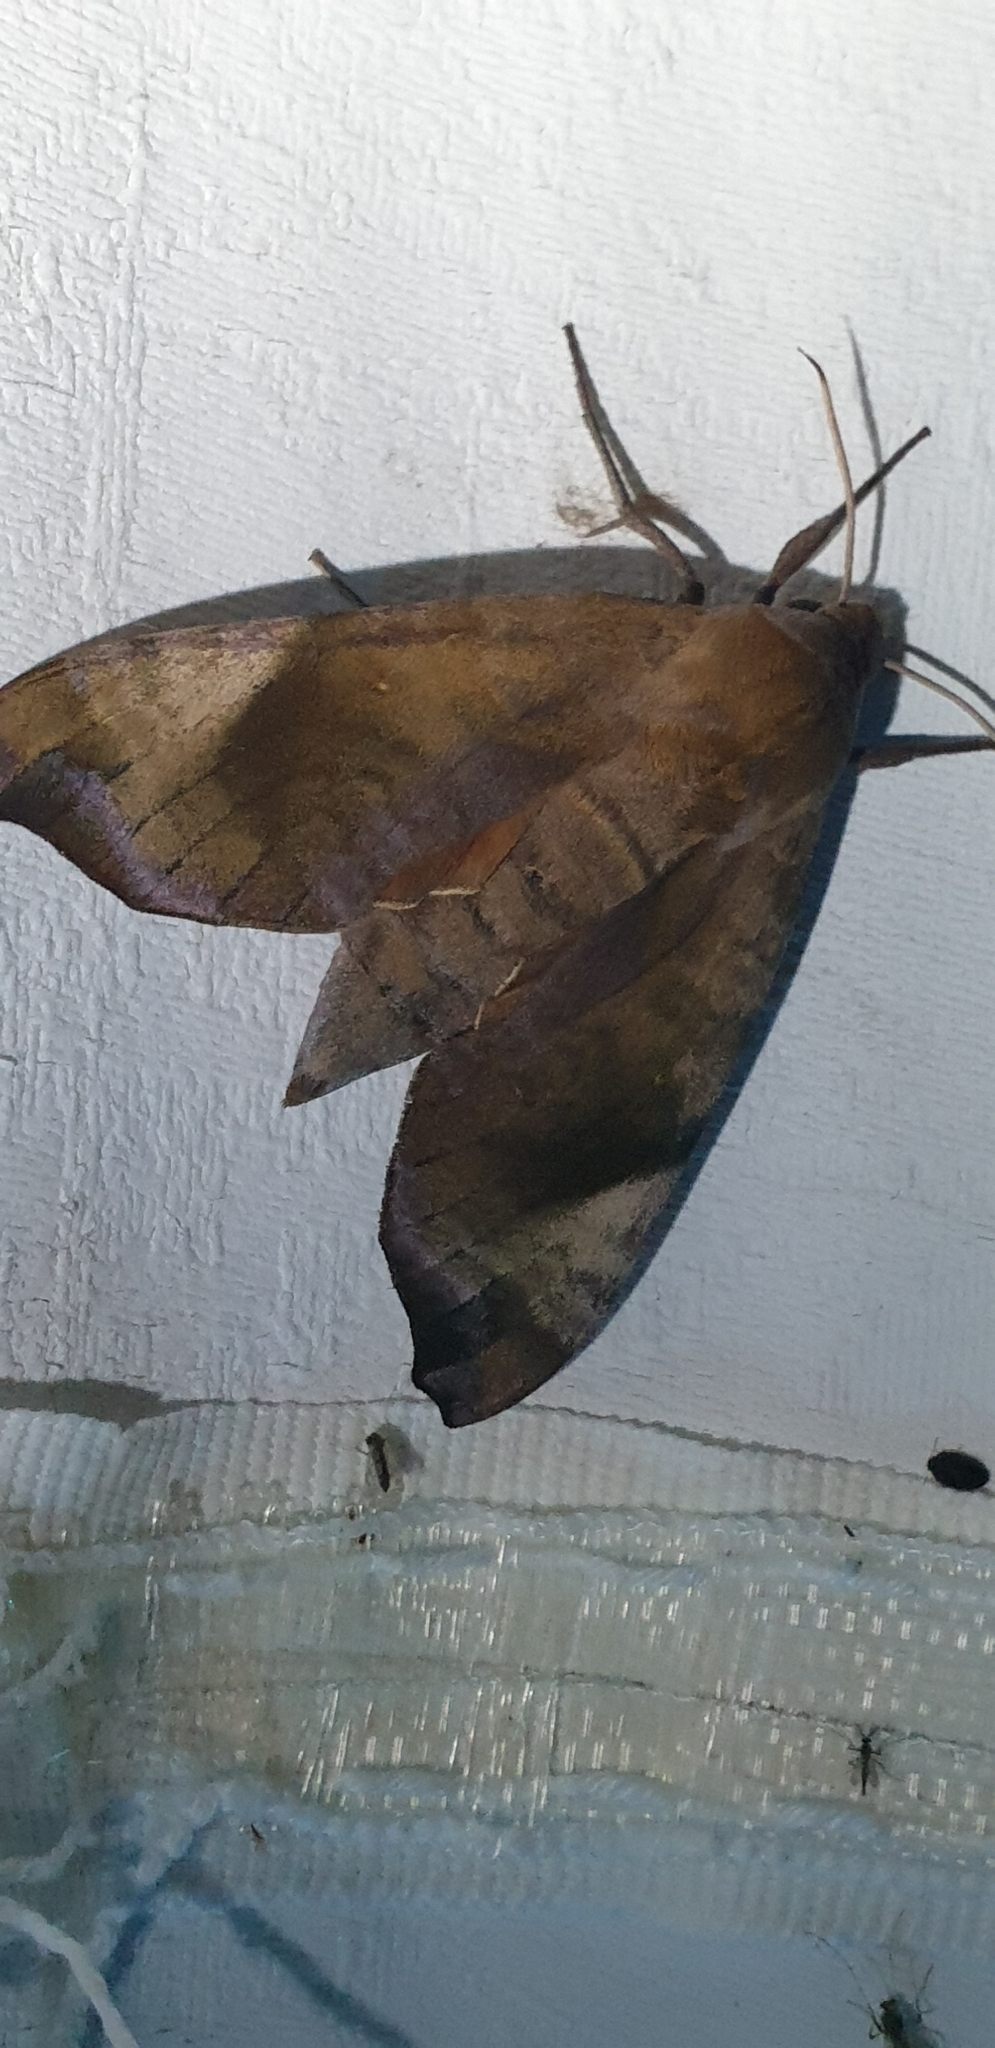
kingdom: Animalia
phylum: Arthropoda
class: Insecta
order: Lepidoptera
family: Sphingidae
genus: Acosmeryx
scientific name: Acosmeryx cinnamomea
